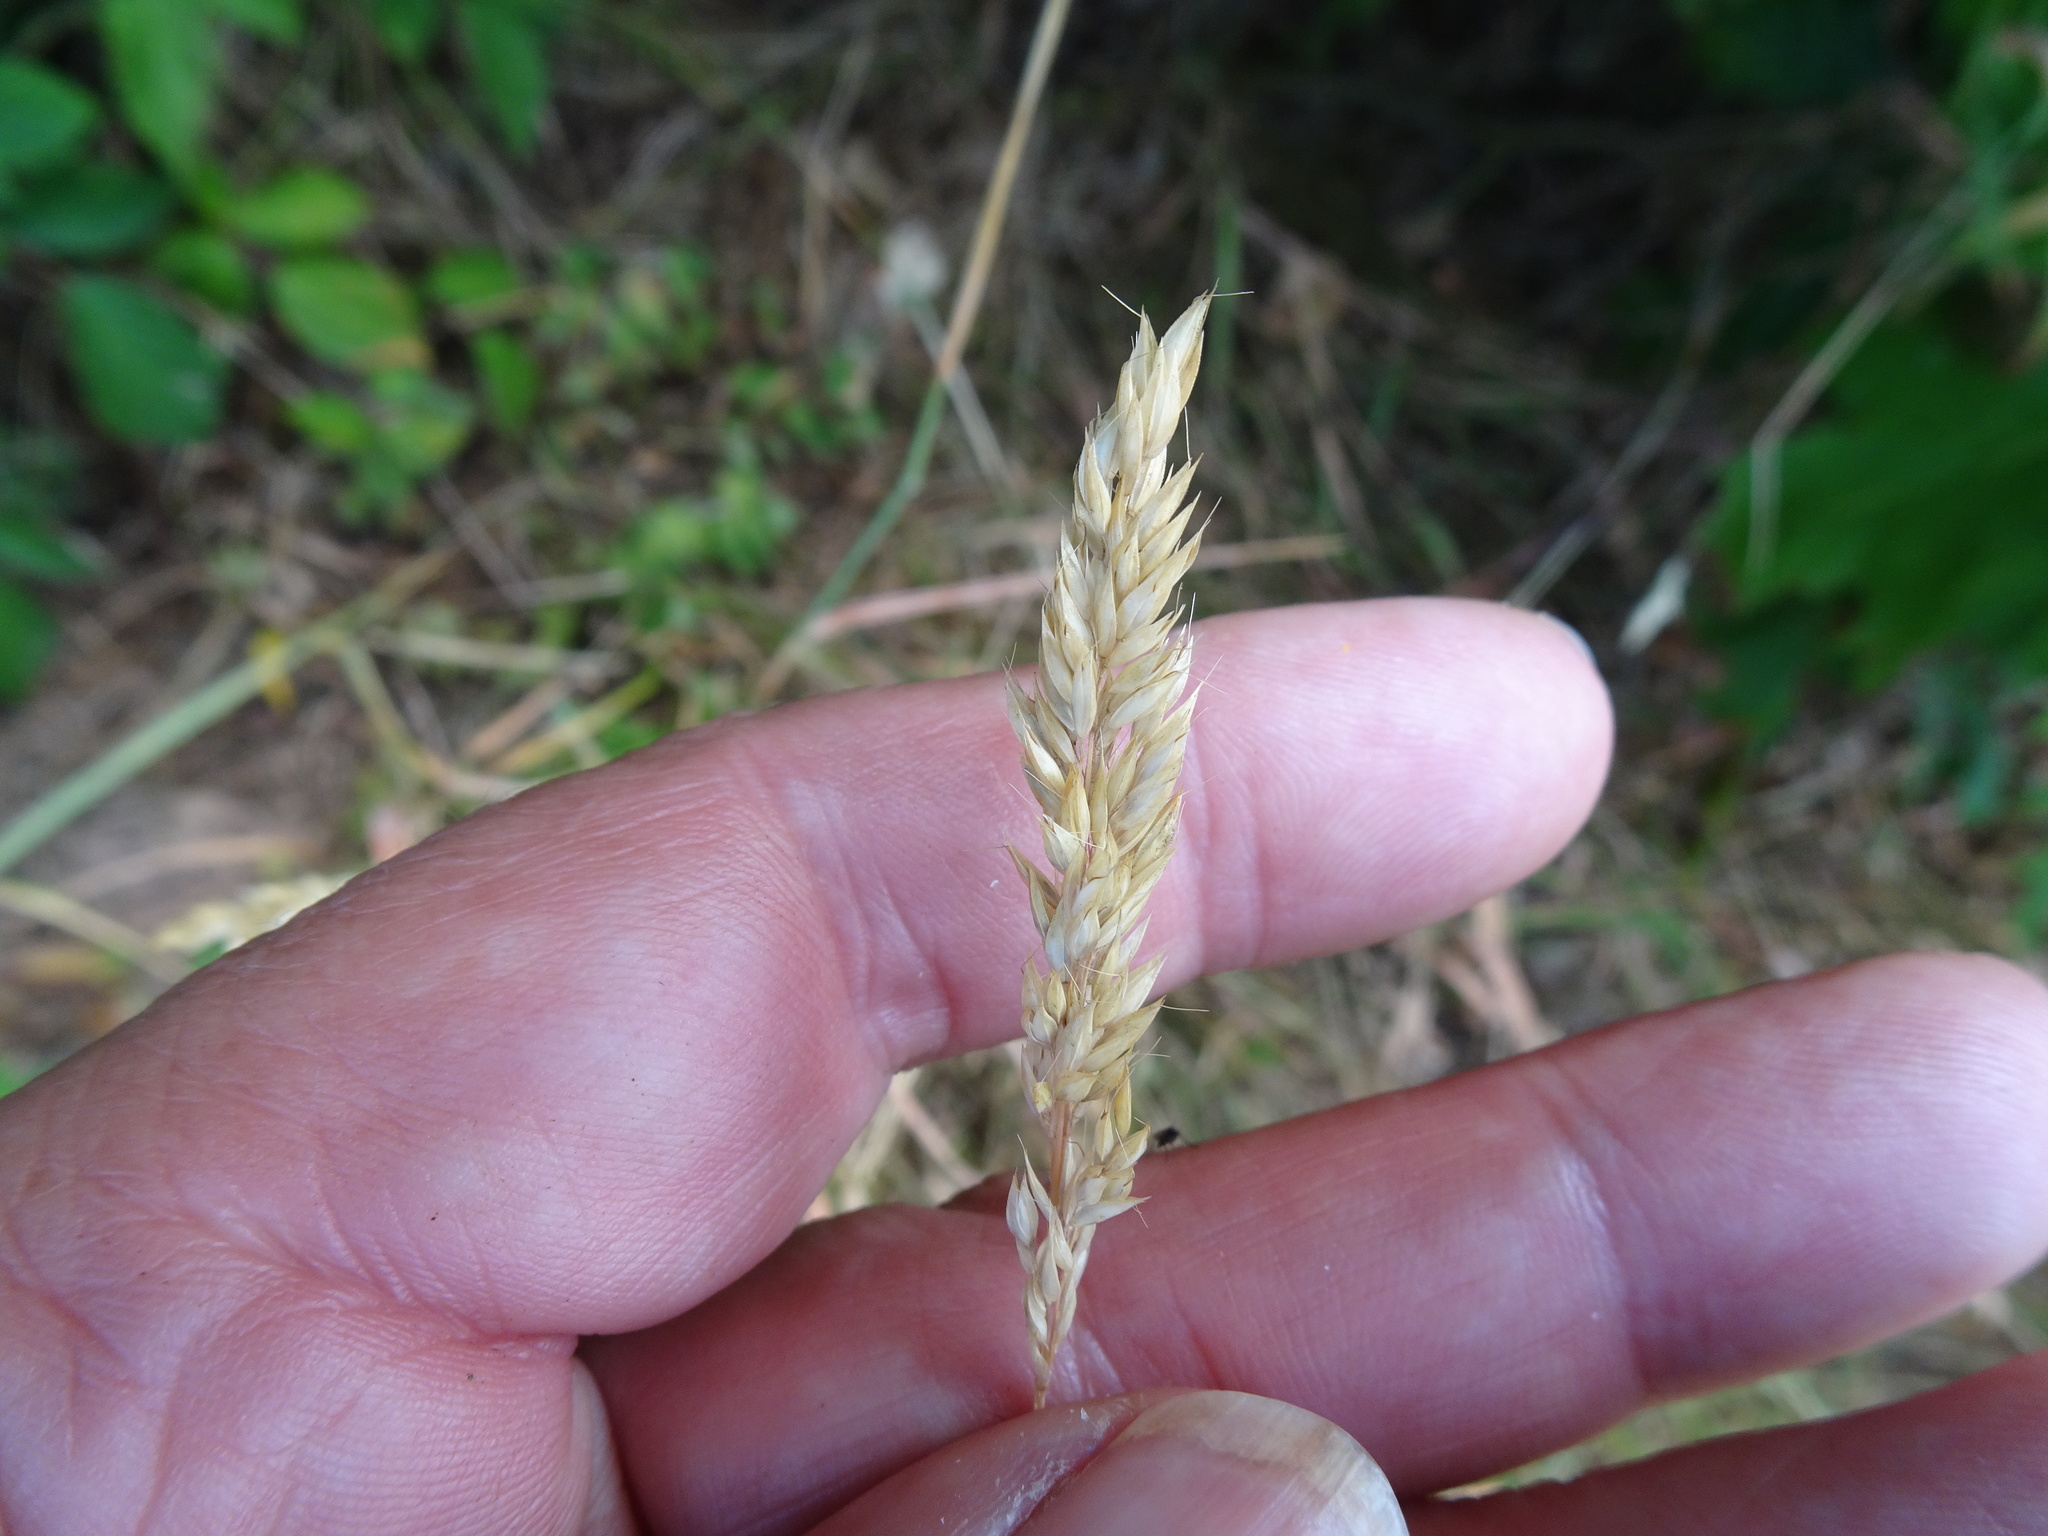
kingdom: Plantae
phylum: Tracheophyta
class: Liliopsida
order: Poales
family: Poaceae
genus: Holcus
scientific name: Holcus mollis
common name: Creeping velvetgrass
